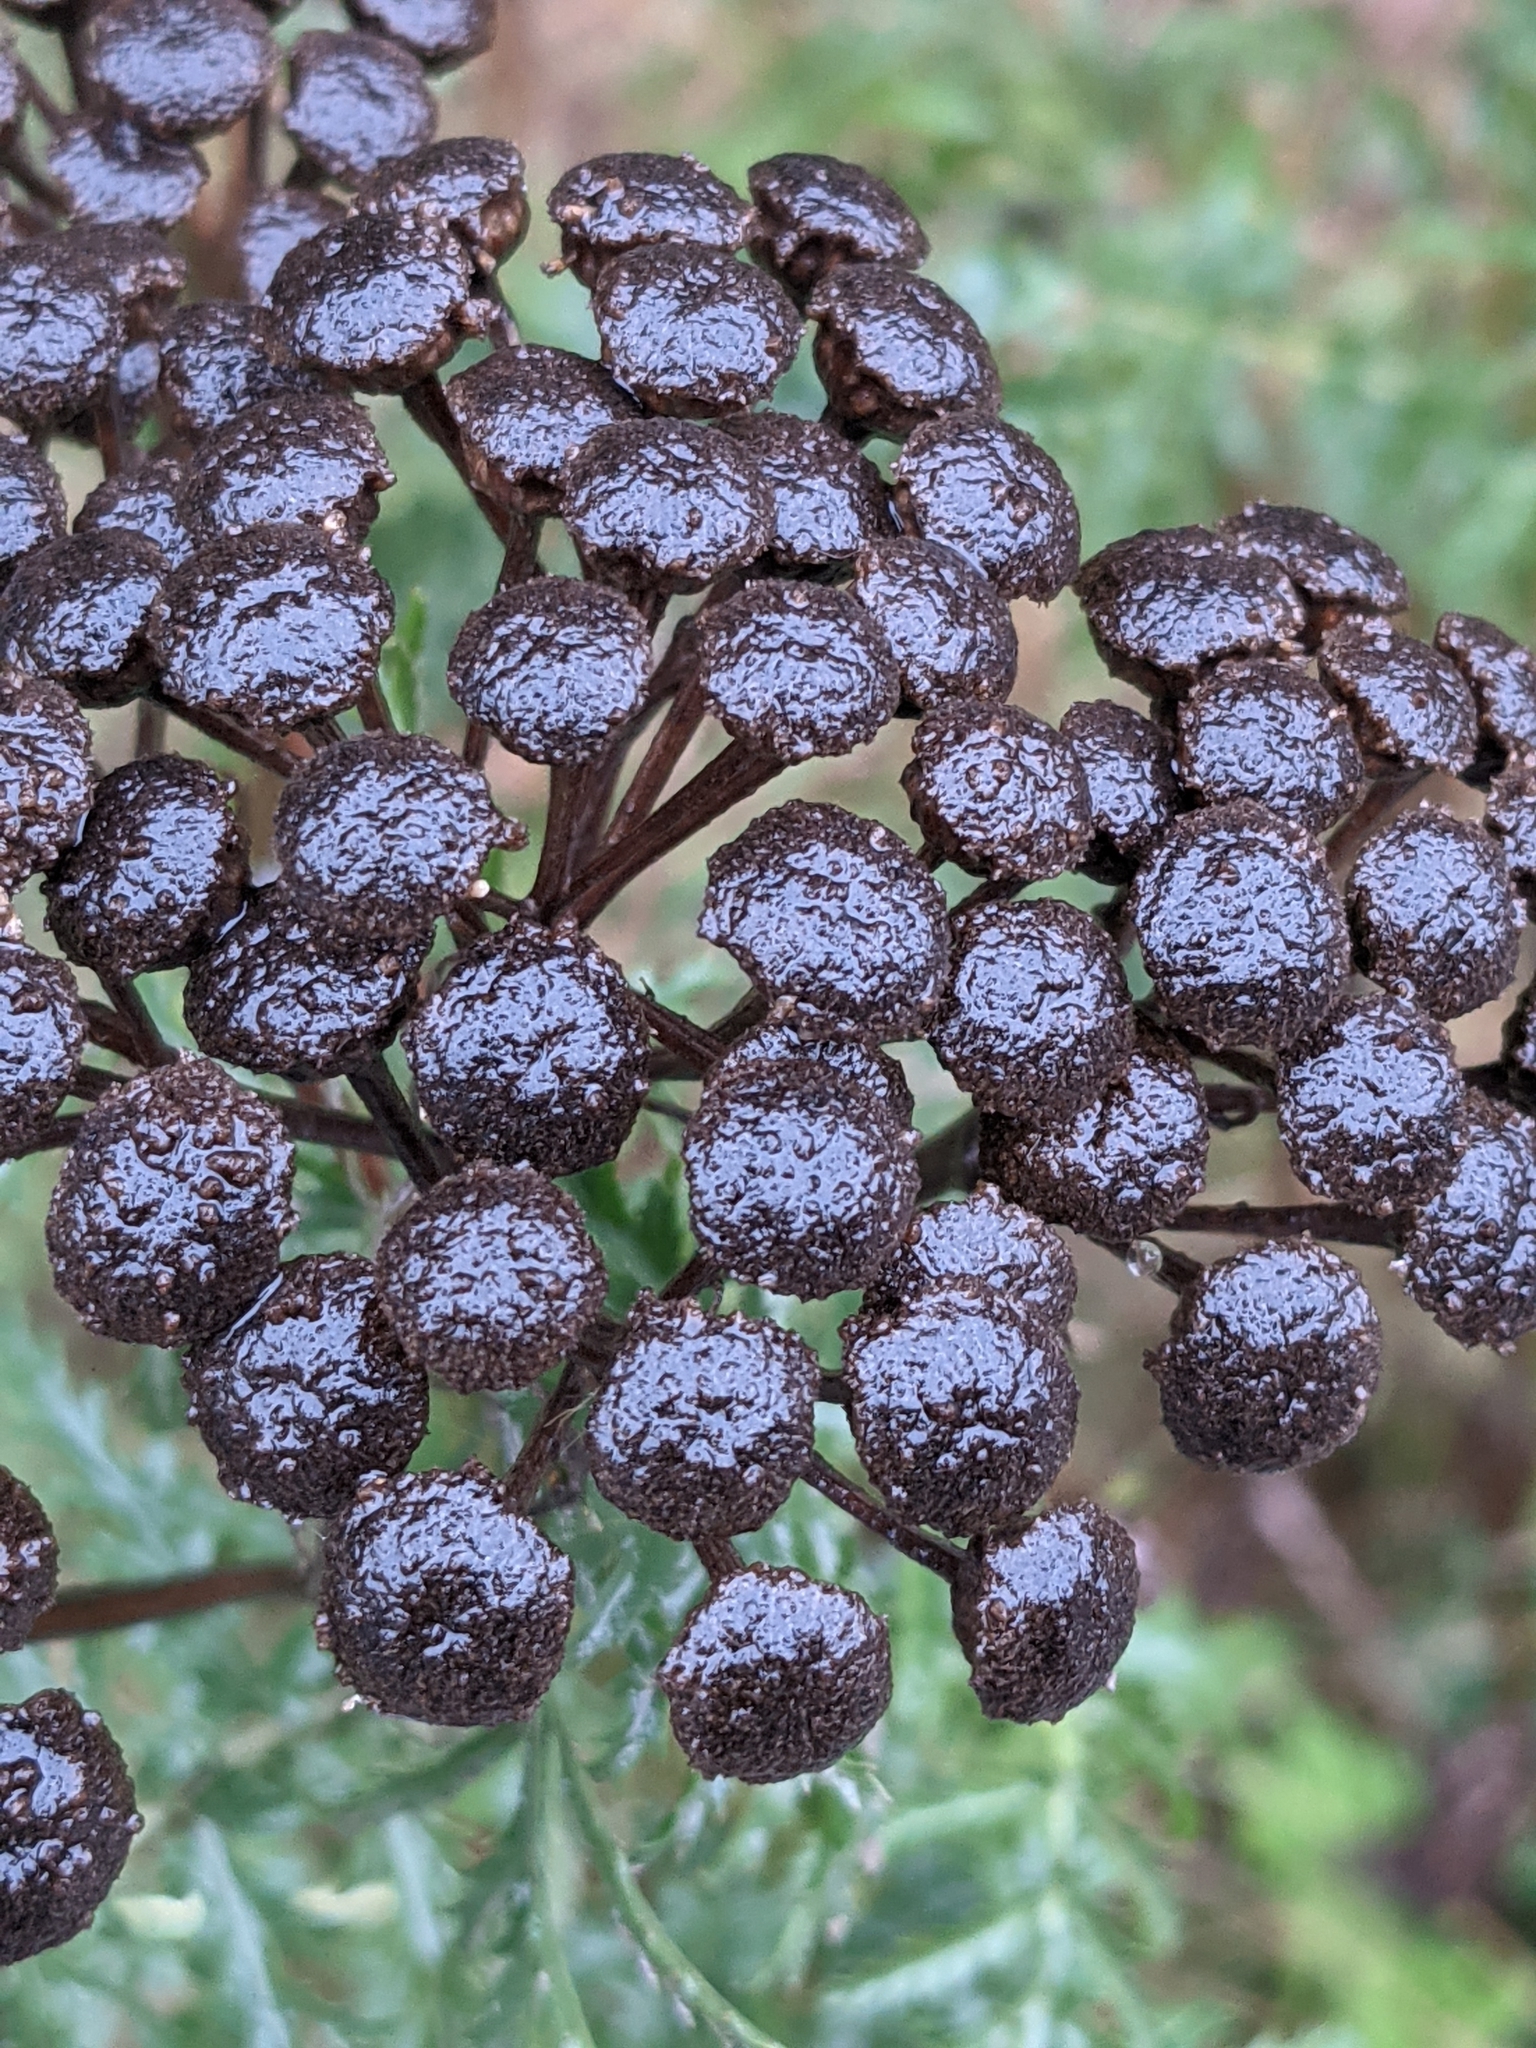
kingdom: Plantae
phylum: Tracheophyta
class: Magnoliopsida
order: Asterales
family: Asteraceae
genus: Tanacetum
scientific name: Tanacetum vulgare
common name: Common tansy
